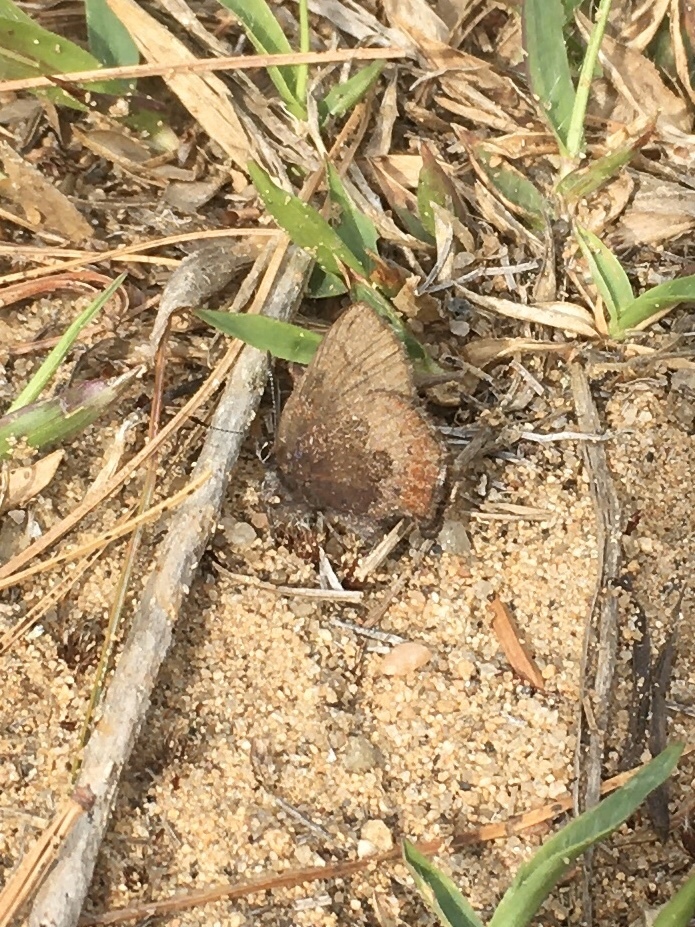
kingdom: Animalia
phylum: Arthropoda
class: Insecta
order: Lepidoptera
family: Lycaenidae
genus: Incisalia
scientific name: Incisalia irioides
